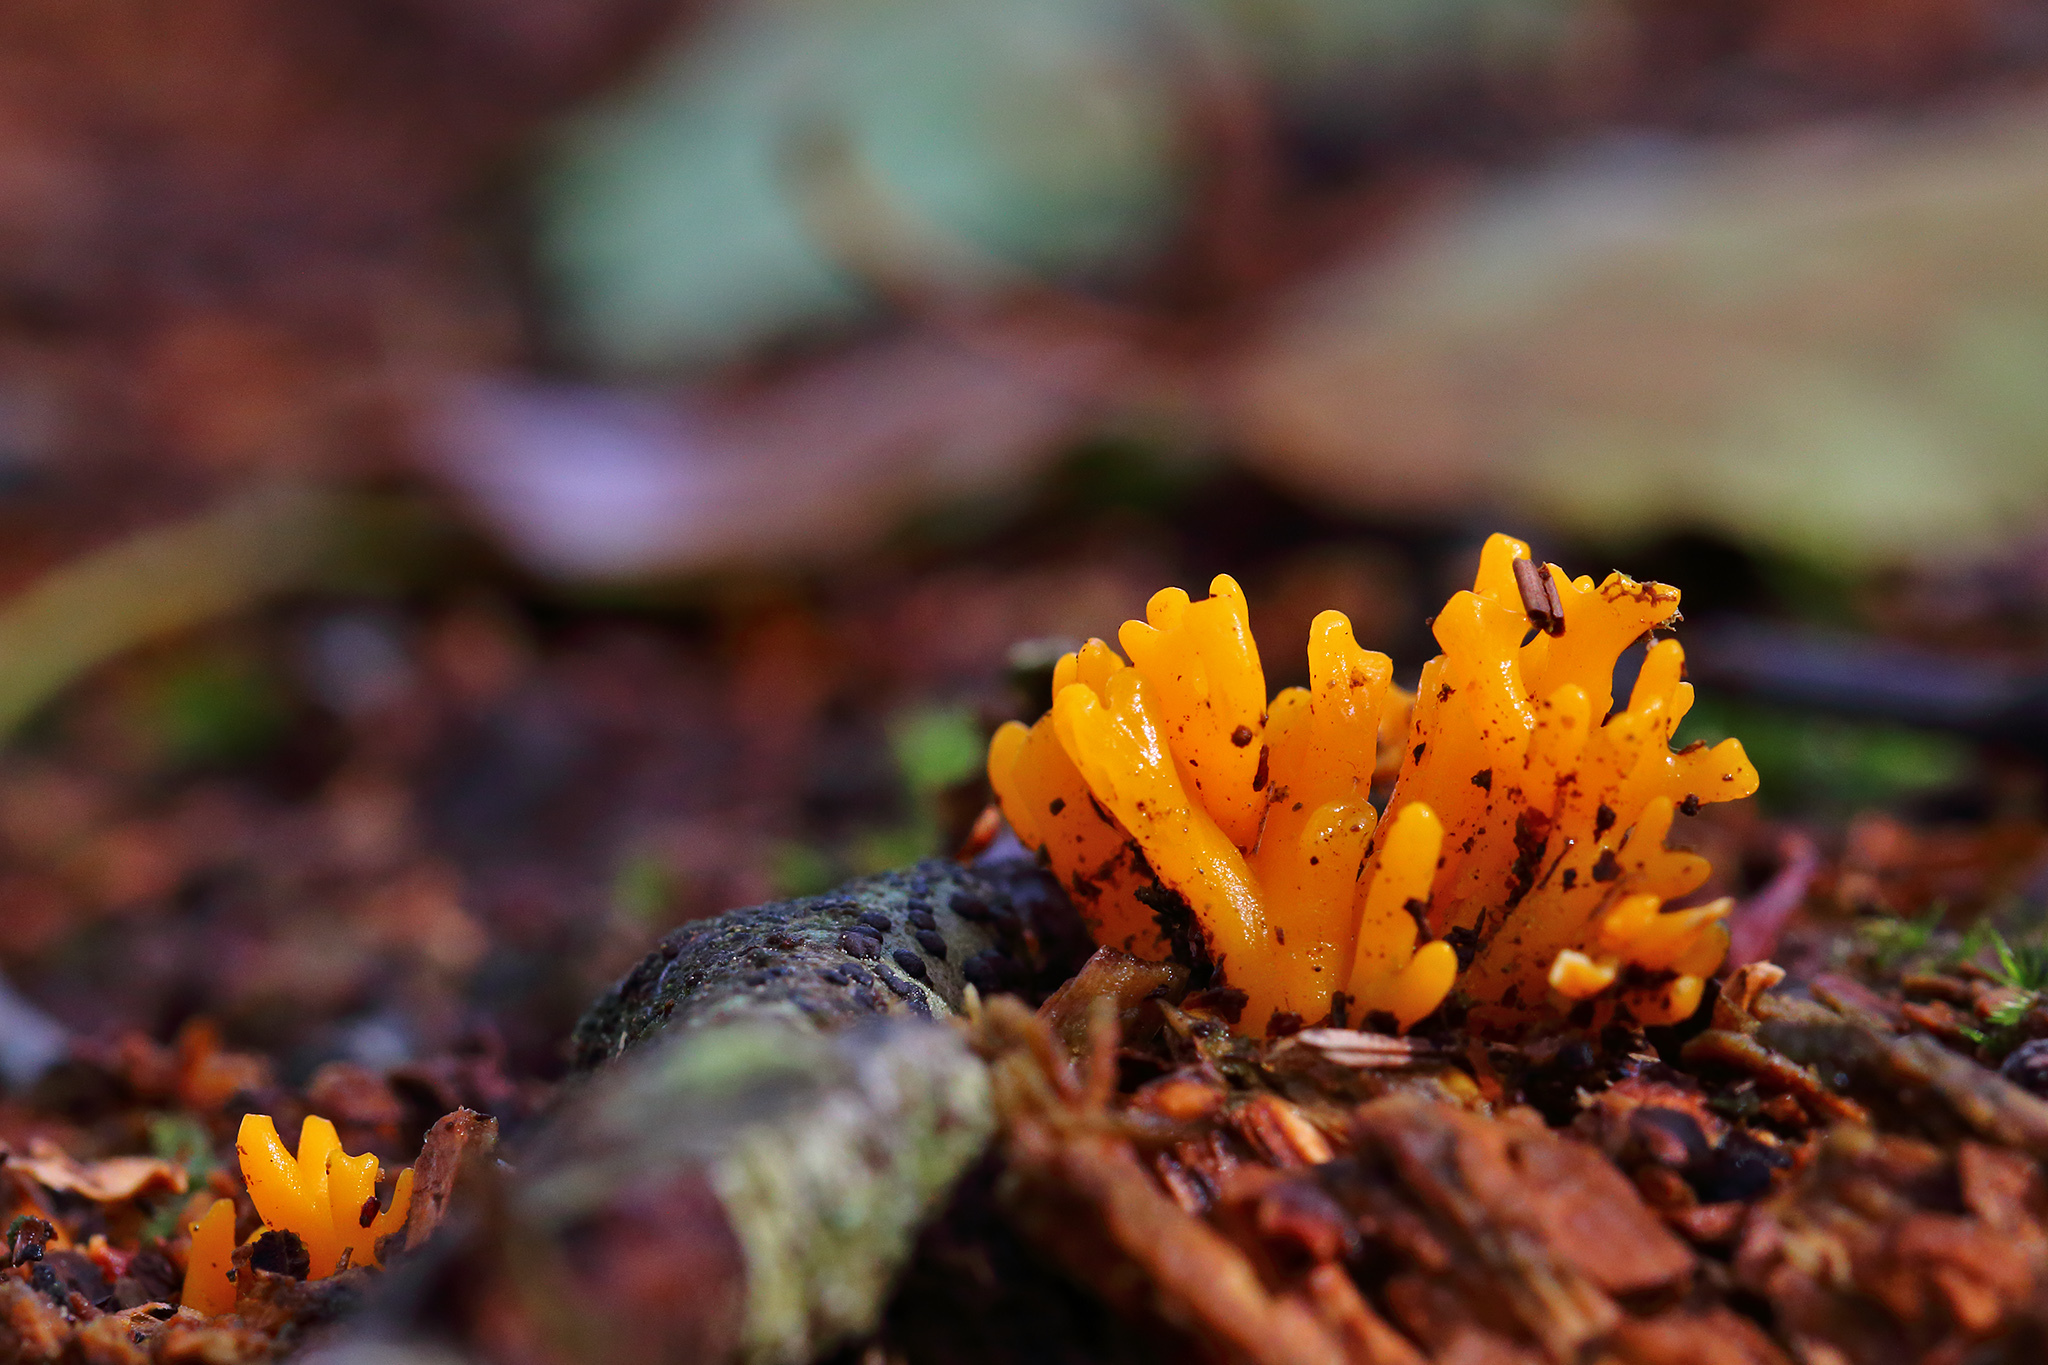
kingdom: Fungi
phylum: Basidiomycota
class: Dacrymycetes
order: Dacrymycetales
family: Dacrymycetaceae
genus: Calocera
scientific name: Calocera viscosa
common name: Yellow stagshorn
